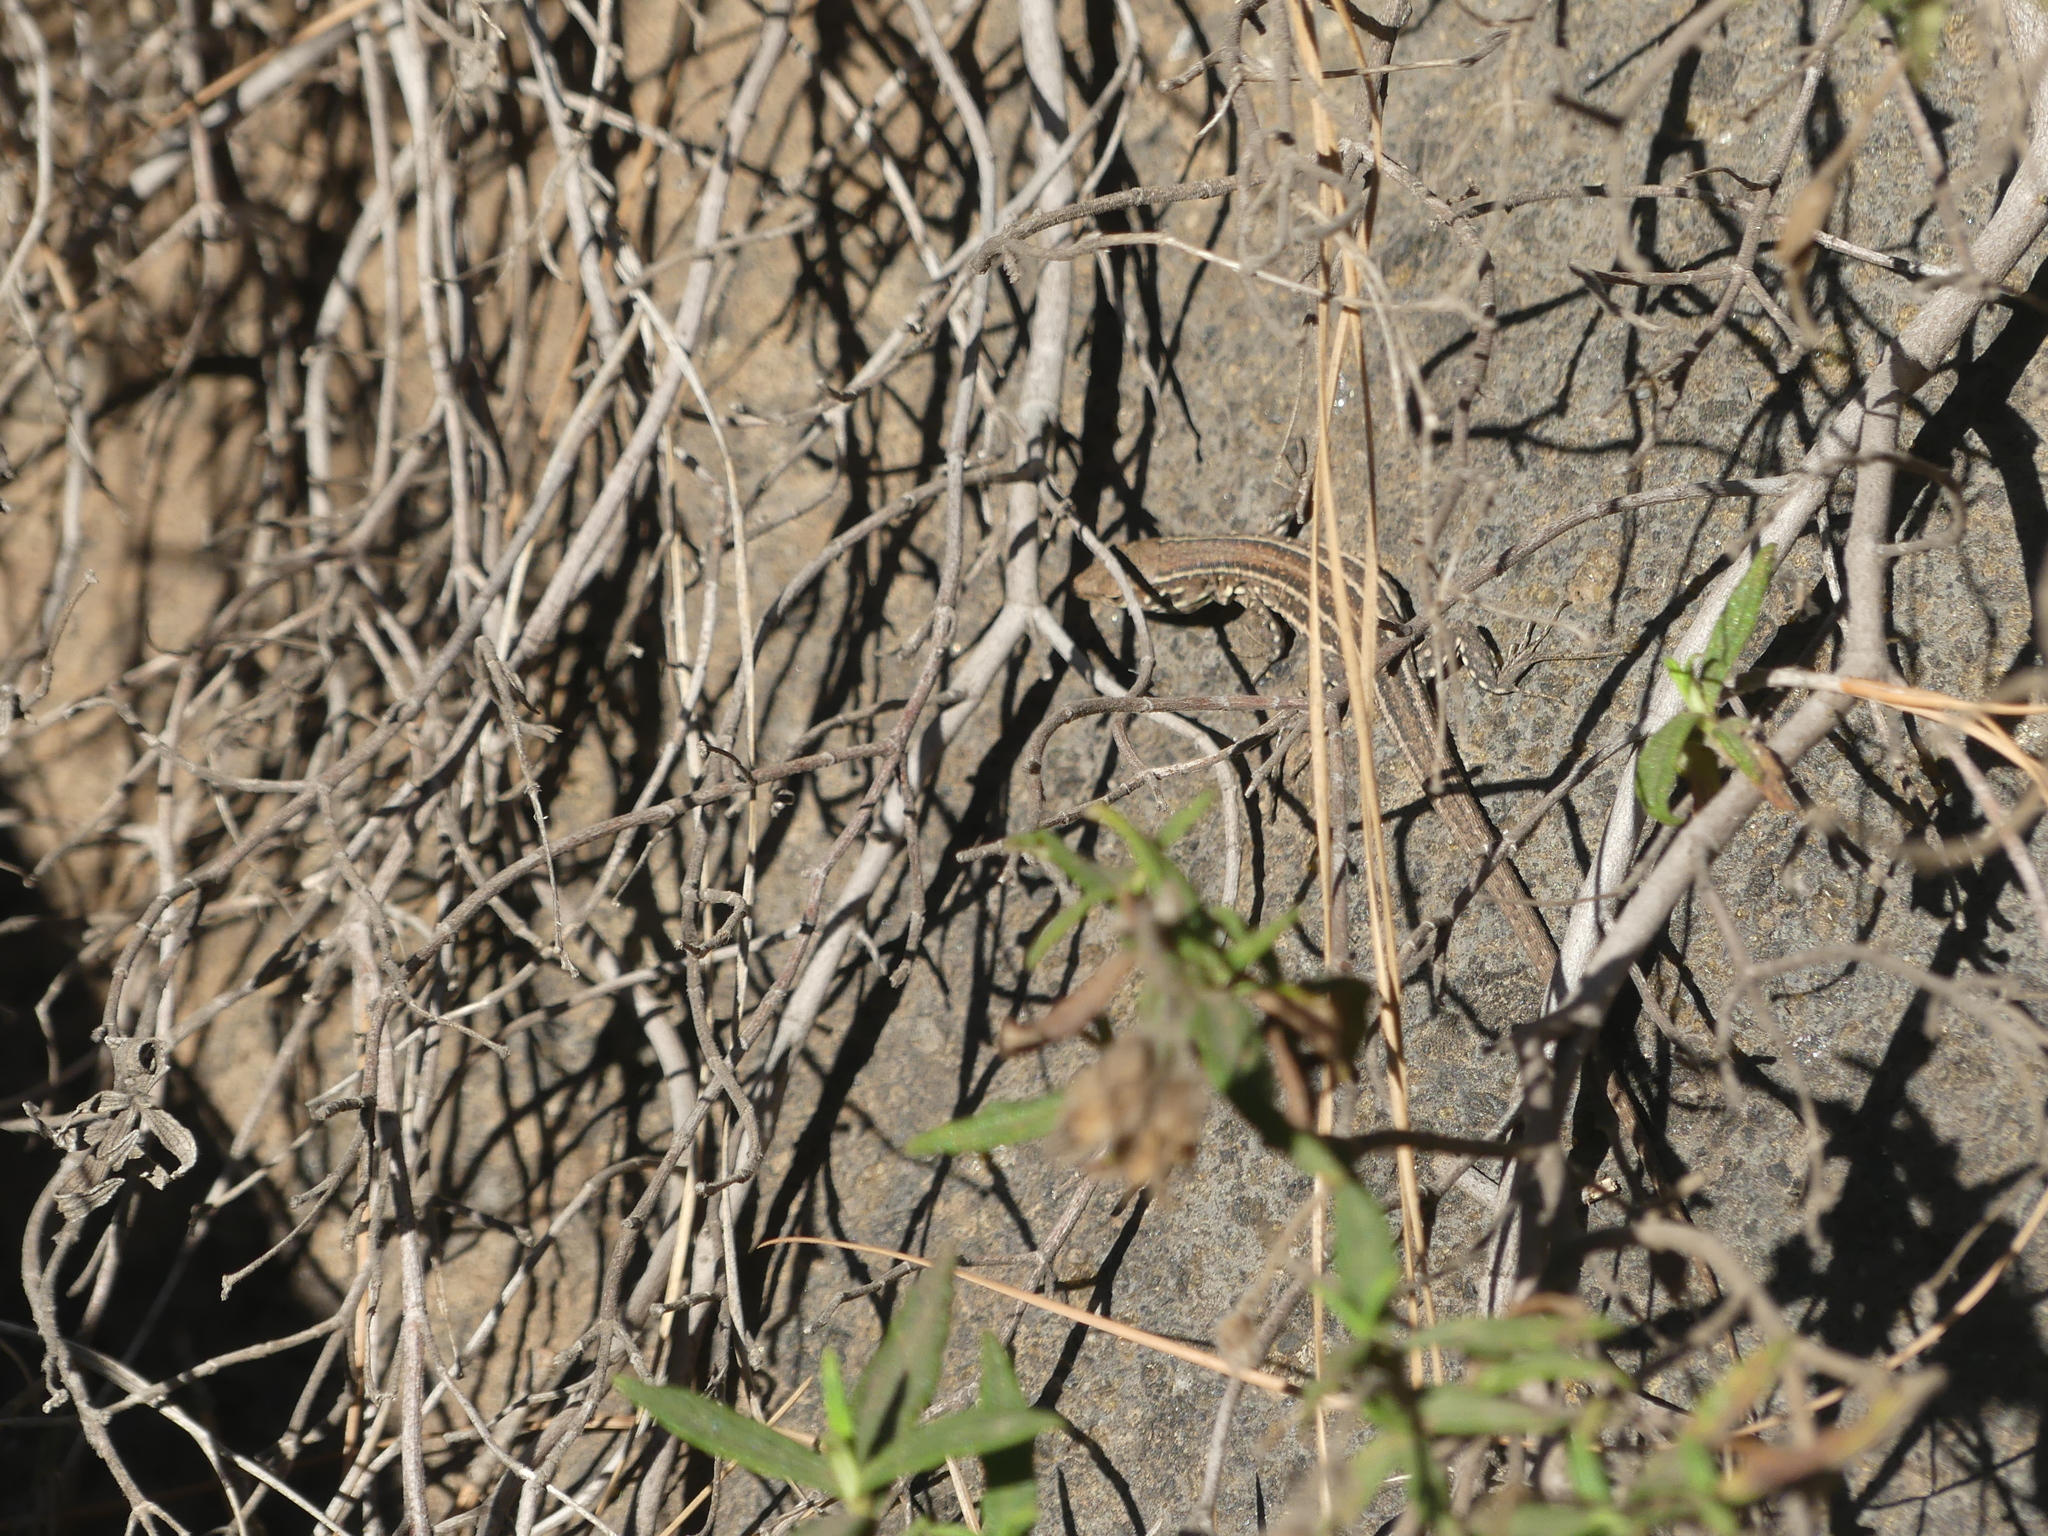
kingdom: Animalia
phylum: Chordata
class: Squamata
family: Lacertidae
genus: Gallotia
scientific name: Gallotia galloti
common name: Gallot's lizard
